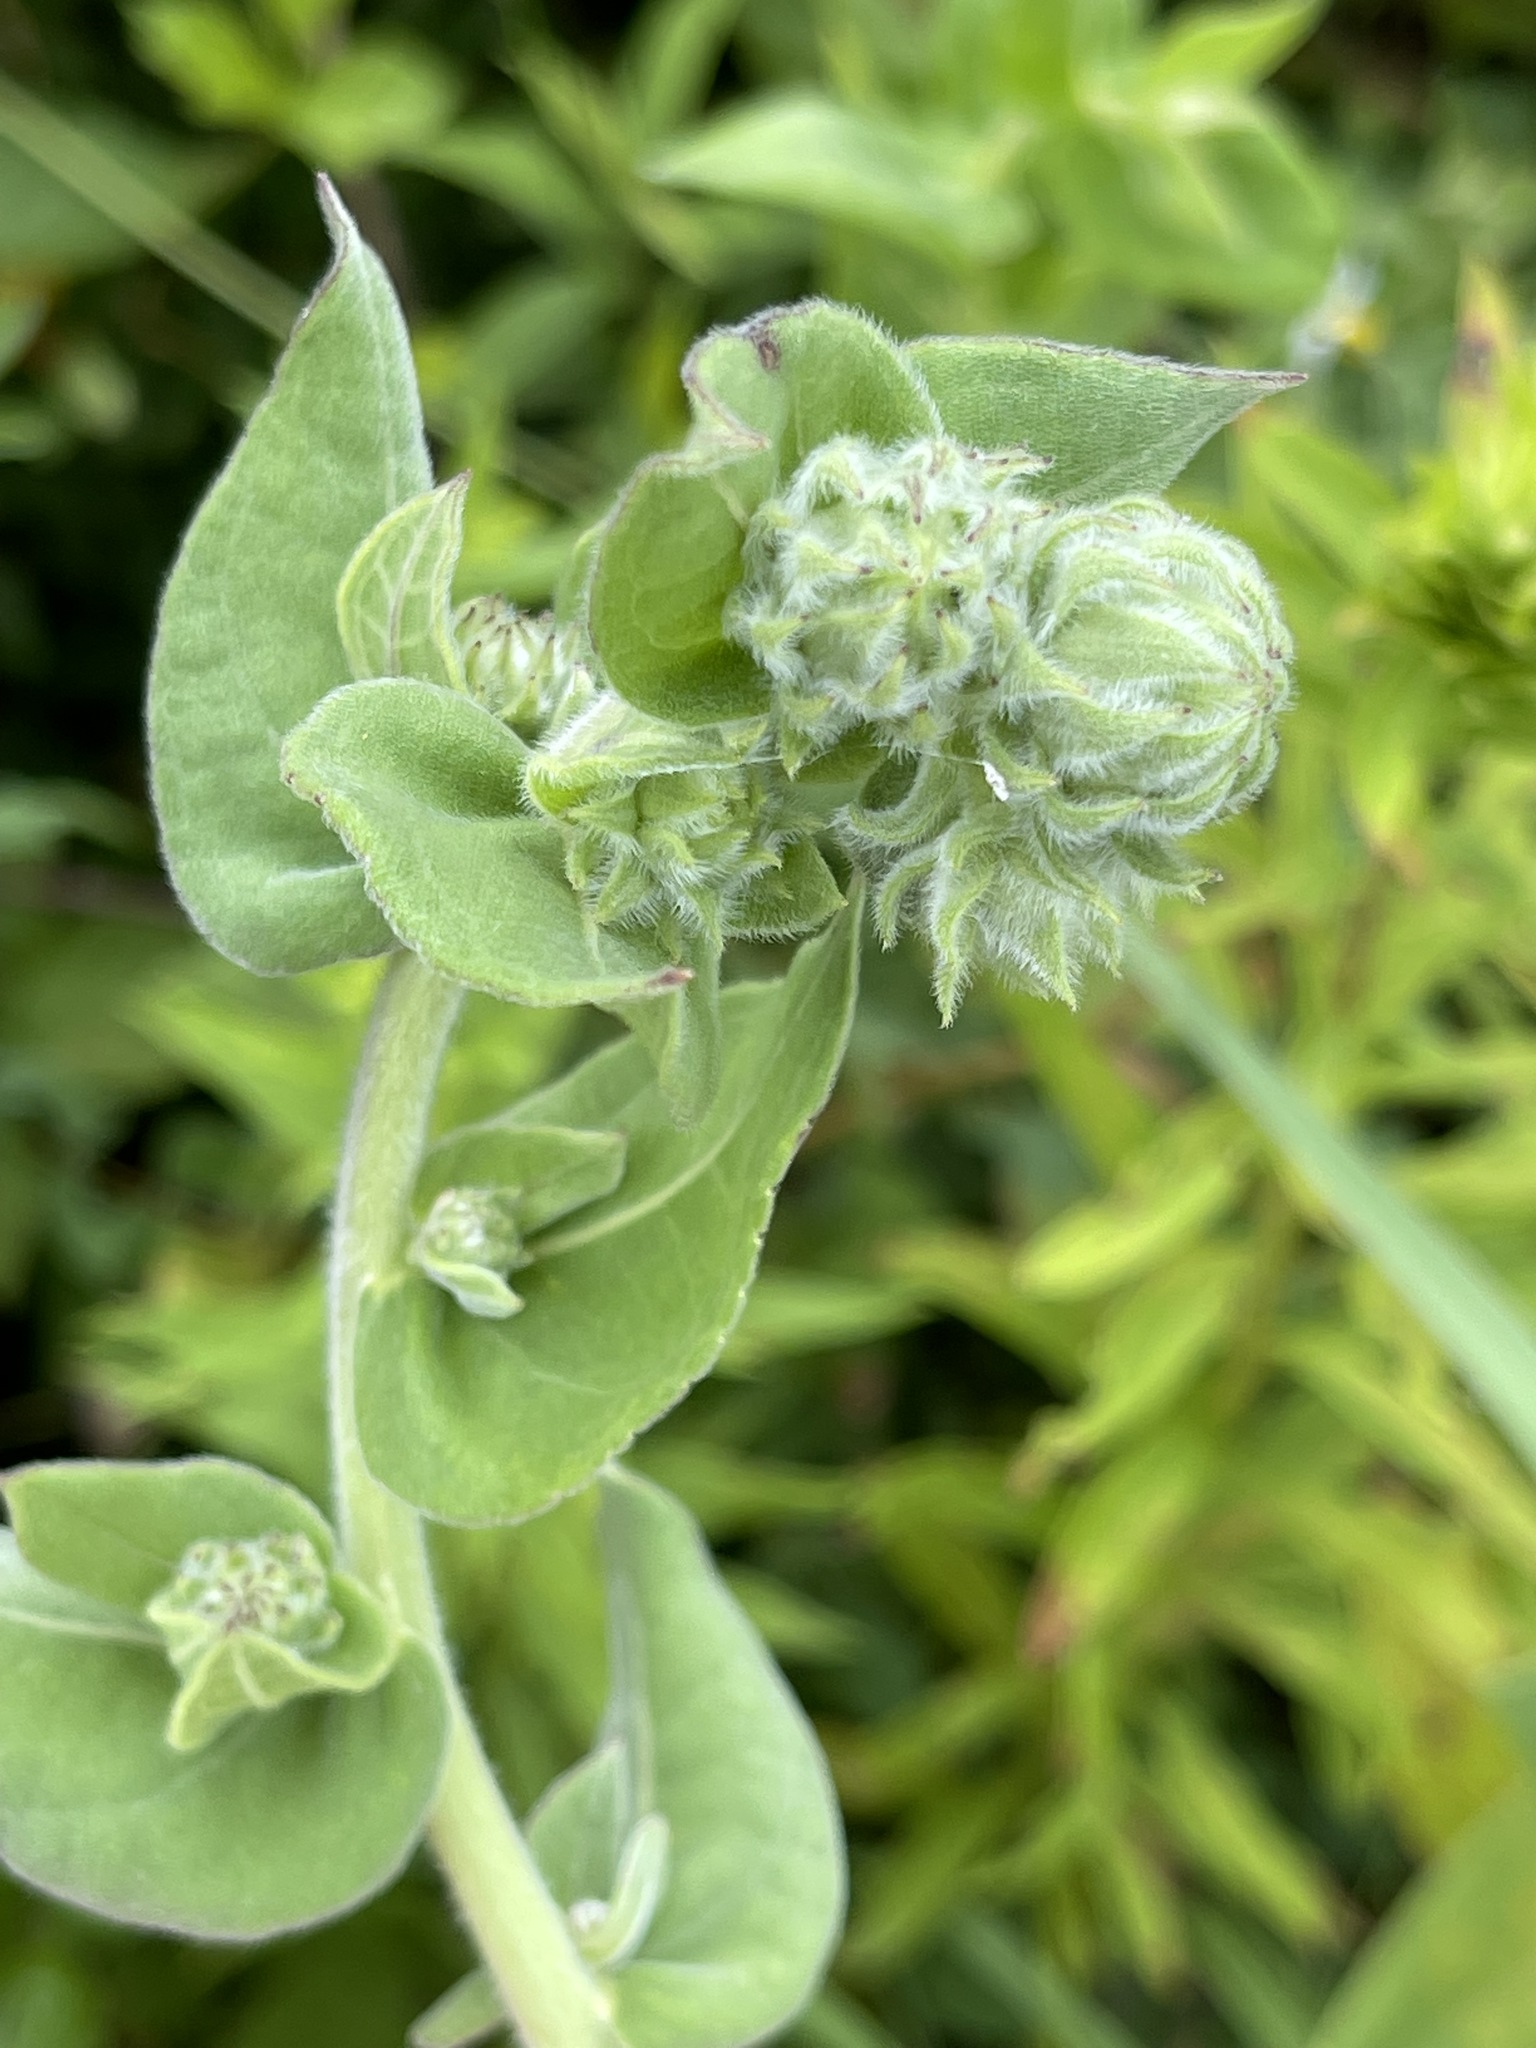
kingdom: Plantae
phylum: Tracheophyta
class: Magnoliopsida
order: Asterales
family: Asteraceae
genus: Helianthus
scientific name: Helianthus mollis
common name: Ashy sunflower
